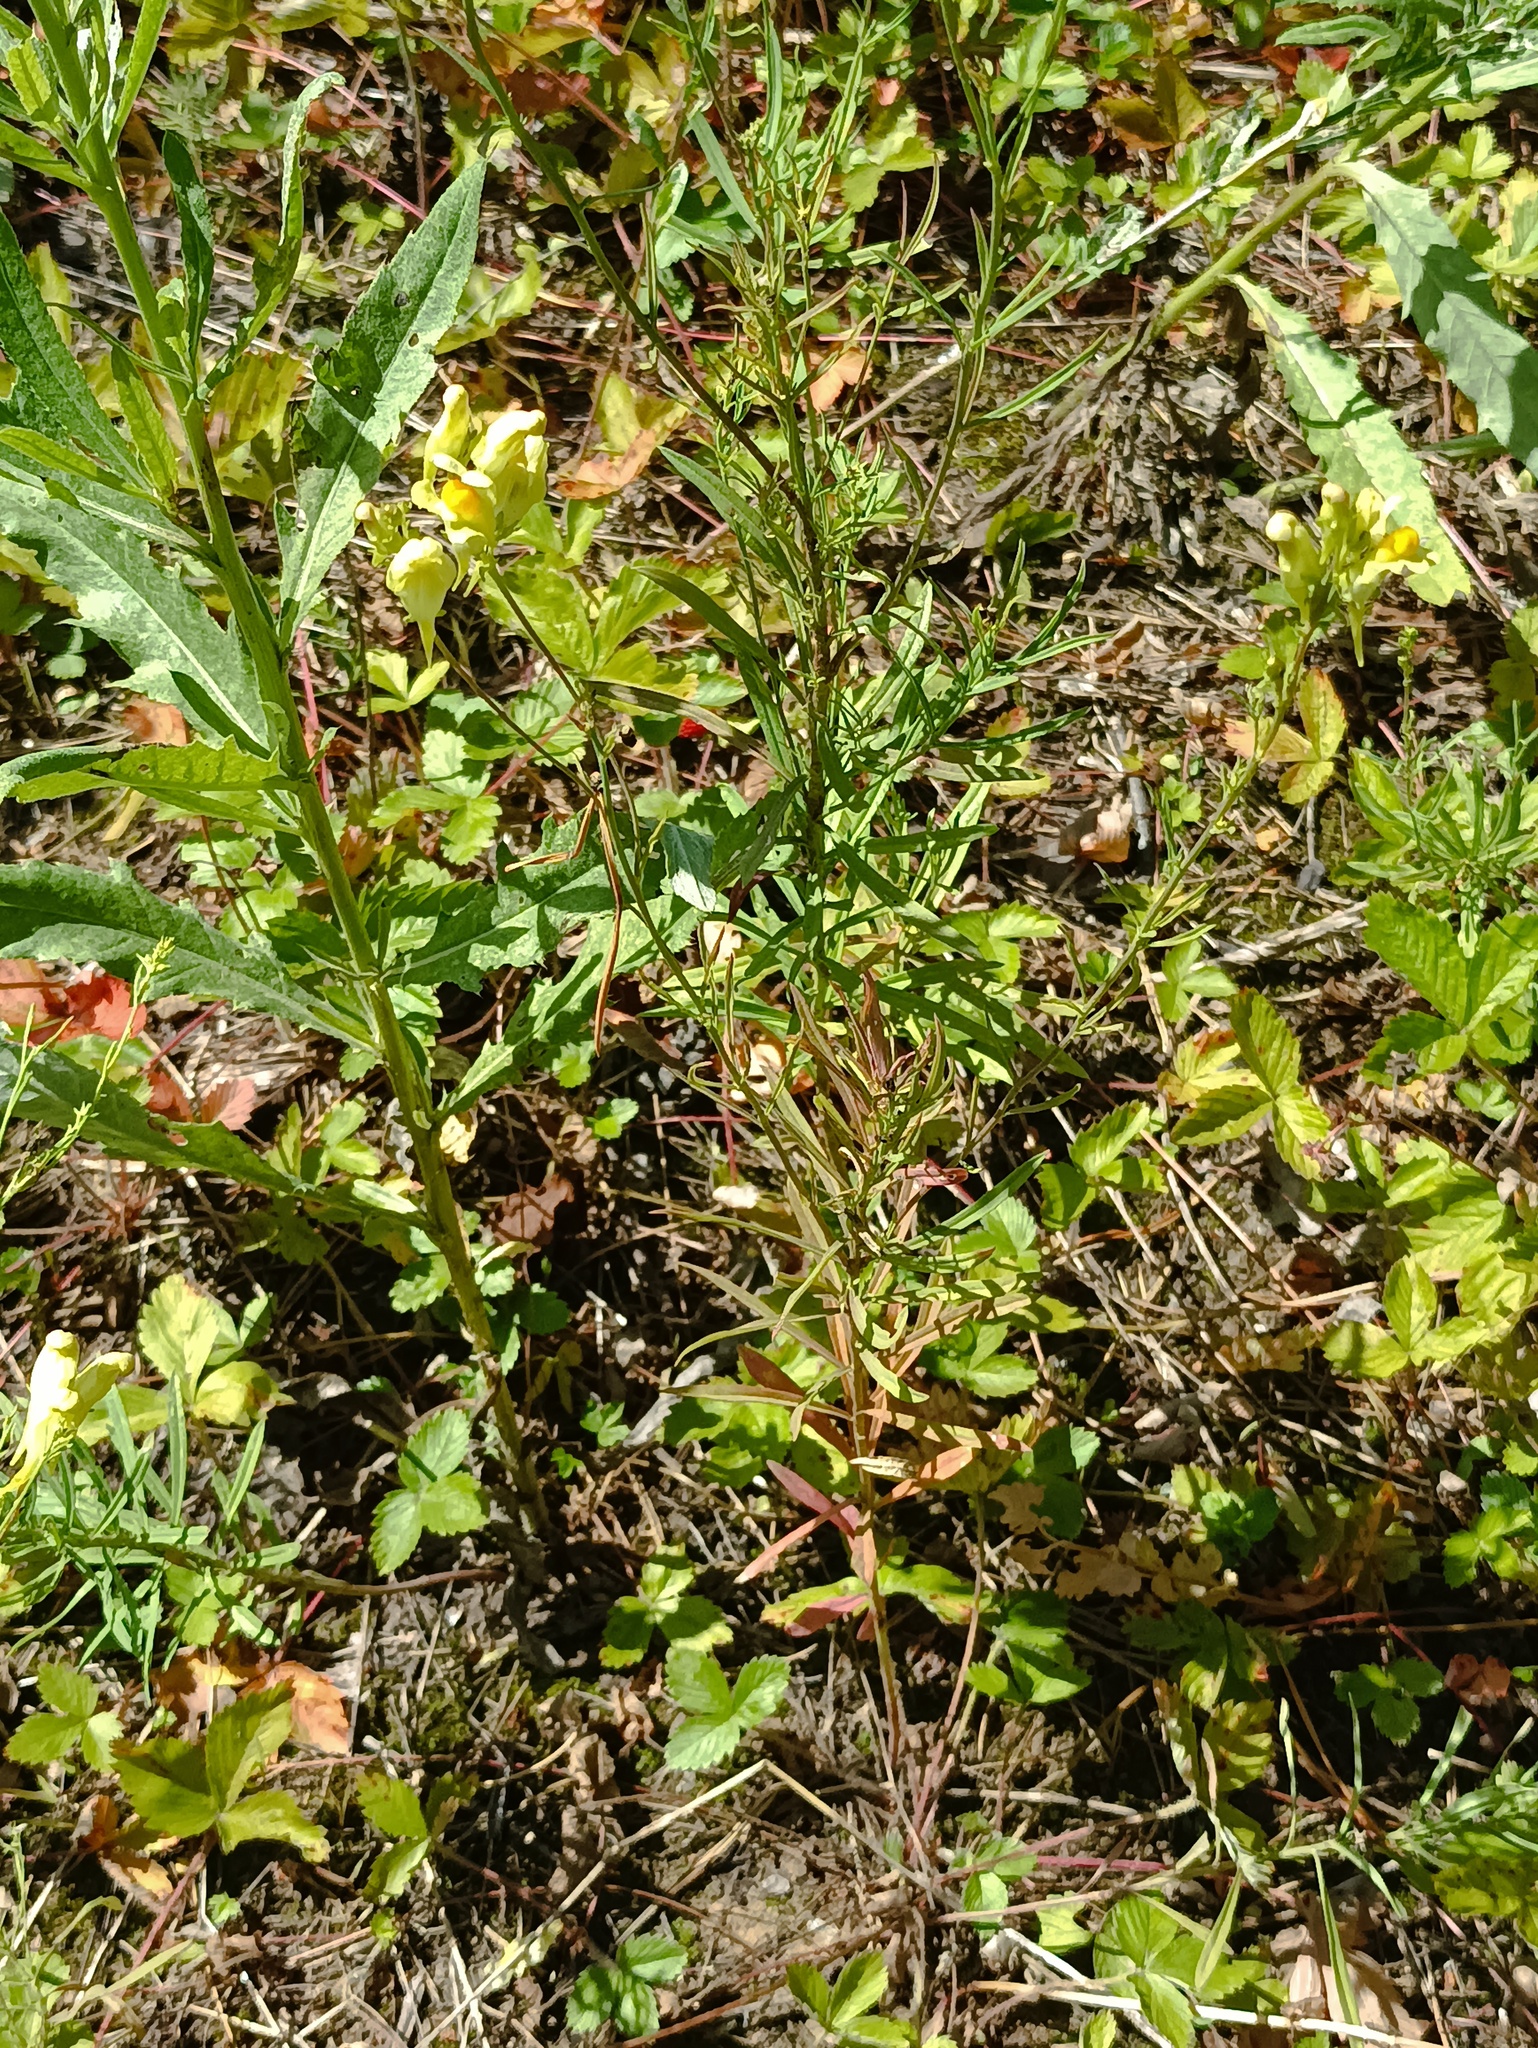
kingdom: Plantae
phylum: Tracheophyta
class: Magnoliopsida
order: Lamiales
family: Plantaginaceae
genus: Linaria
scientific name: Linaria vulgaris
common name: Butter and eggs
